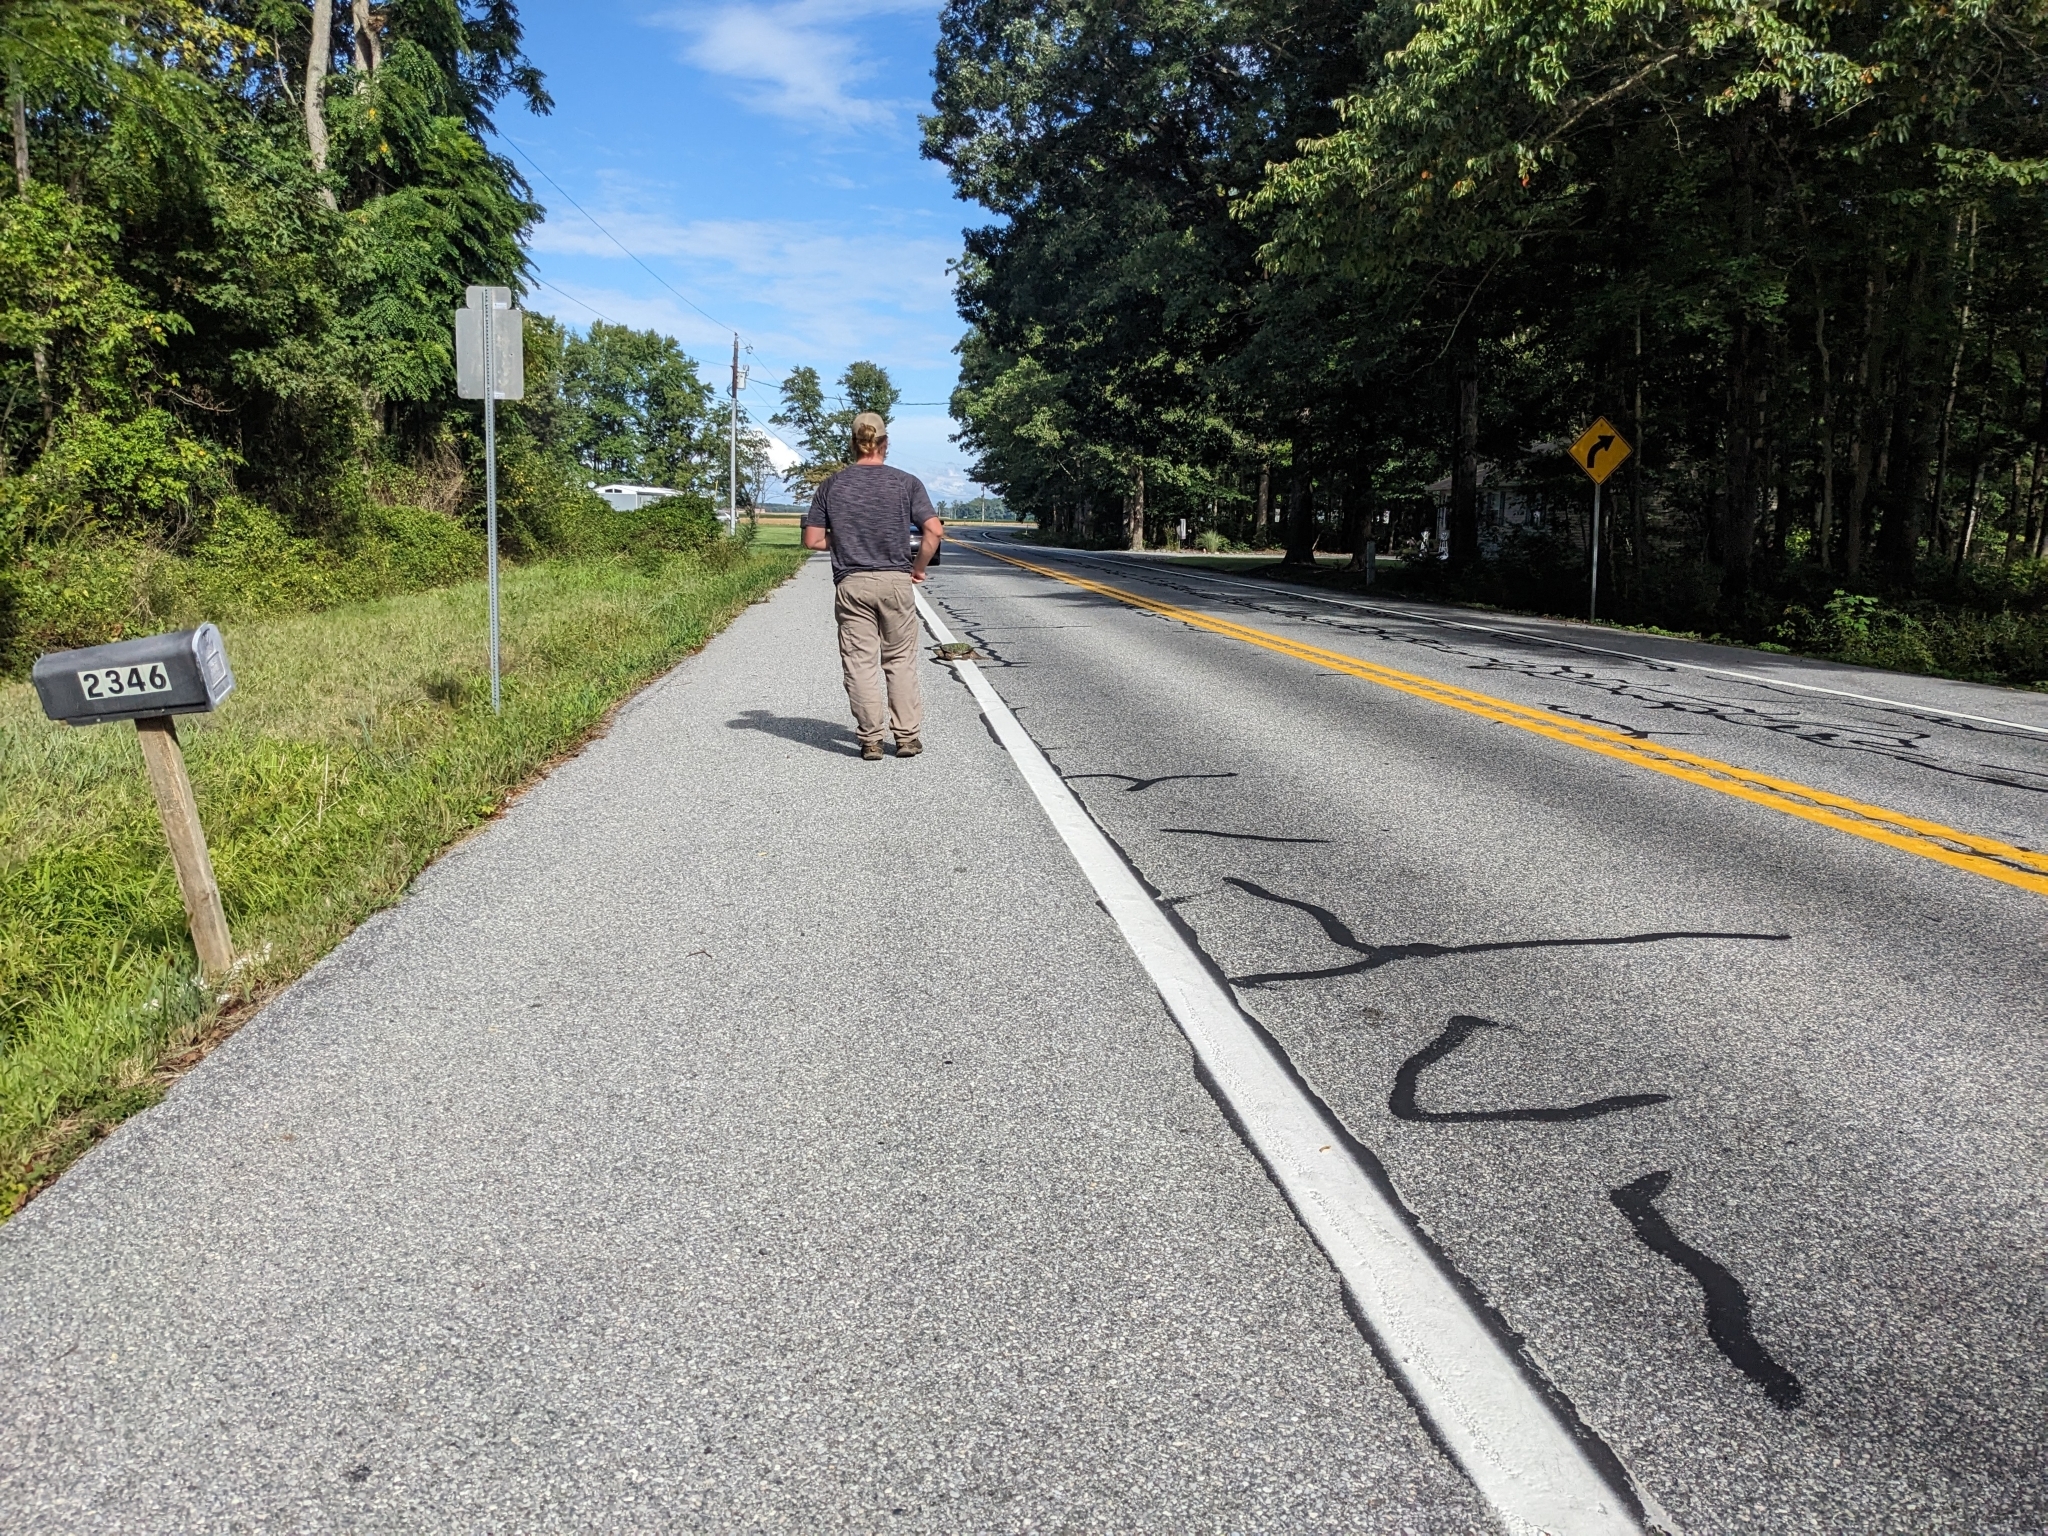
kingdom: Animalia
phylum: Chordata
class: Testudines
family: Chelydridae
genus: Chelydra
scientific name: Chelydra serpentina
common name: Common snapping turtle
